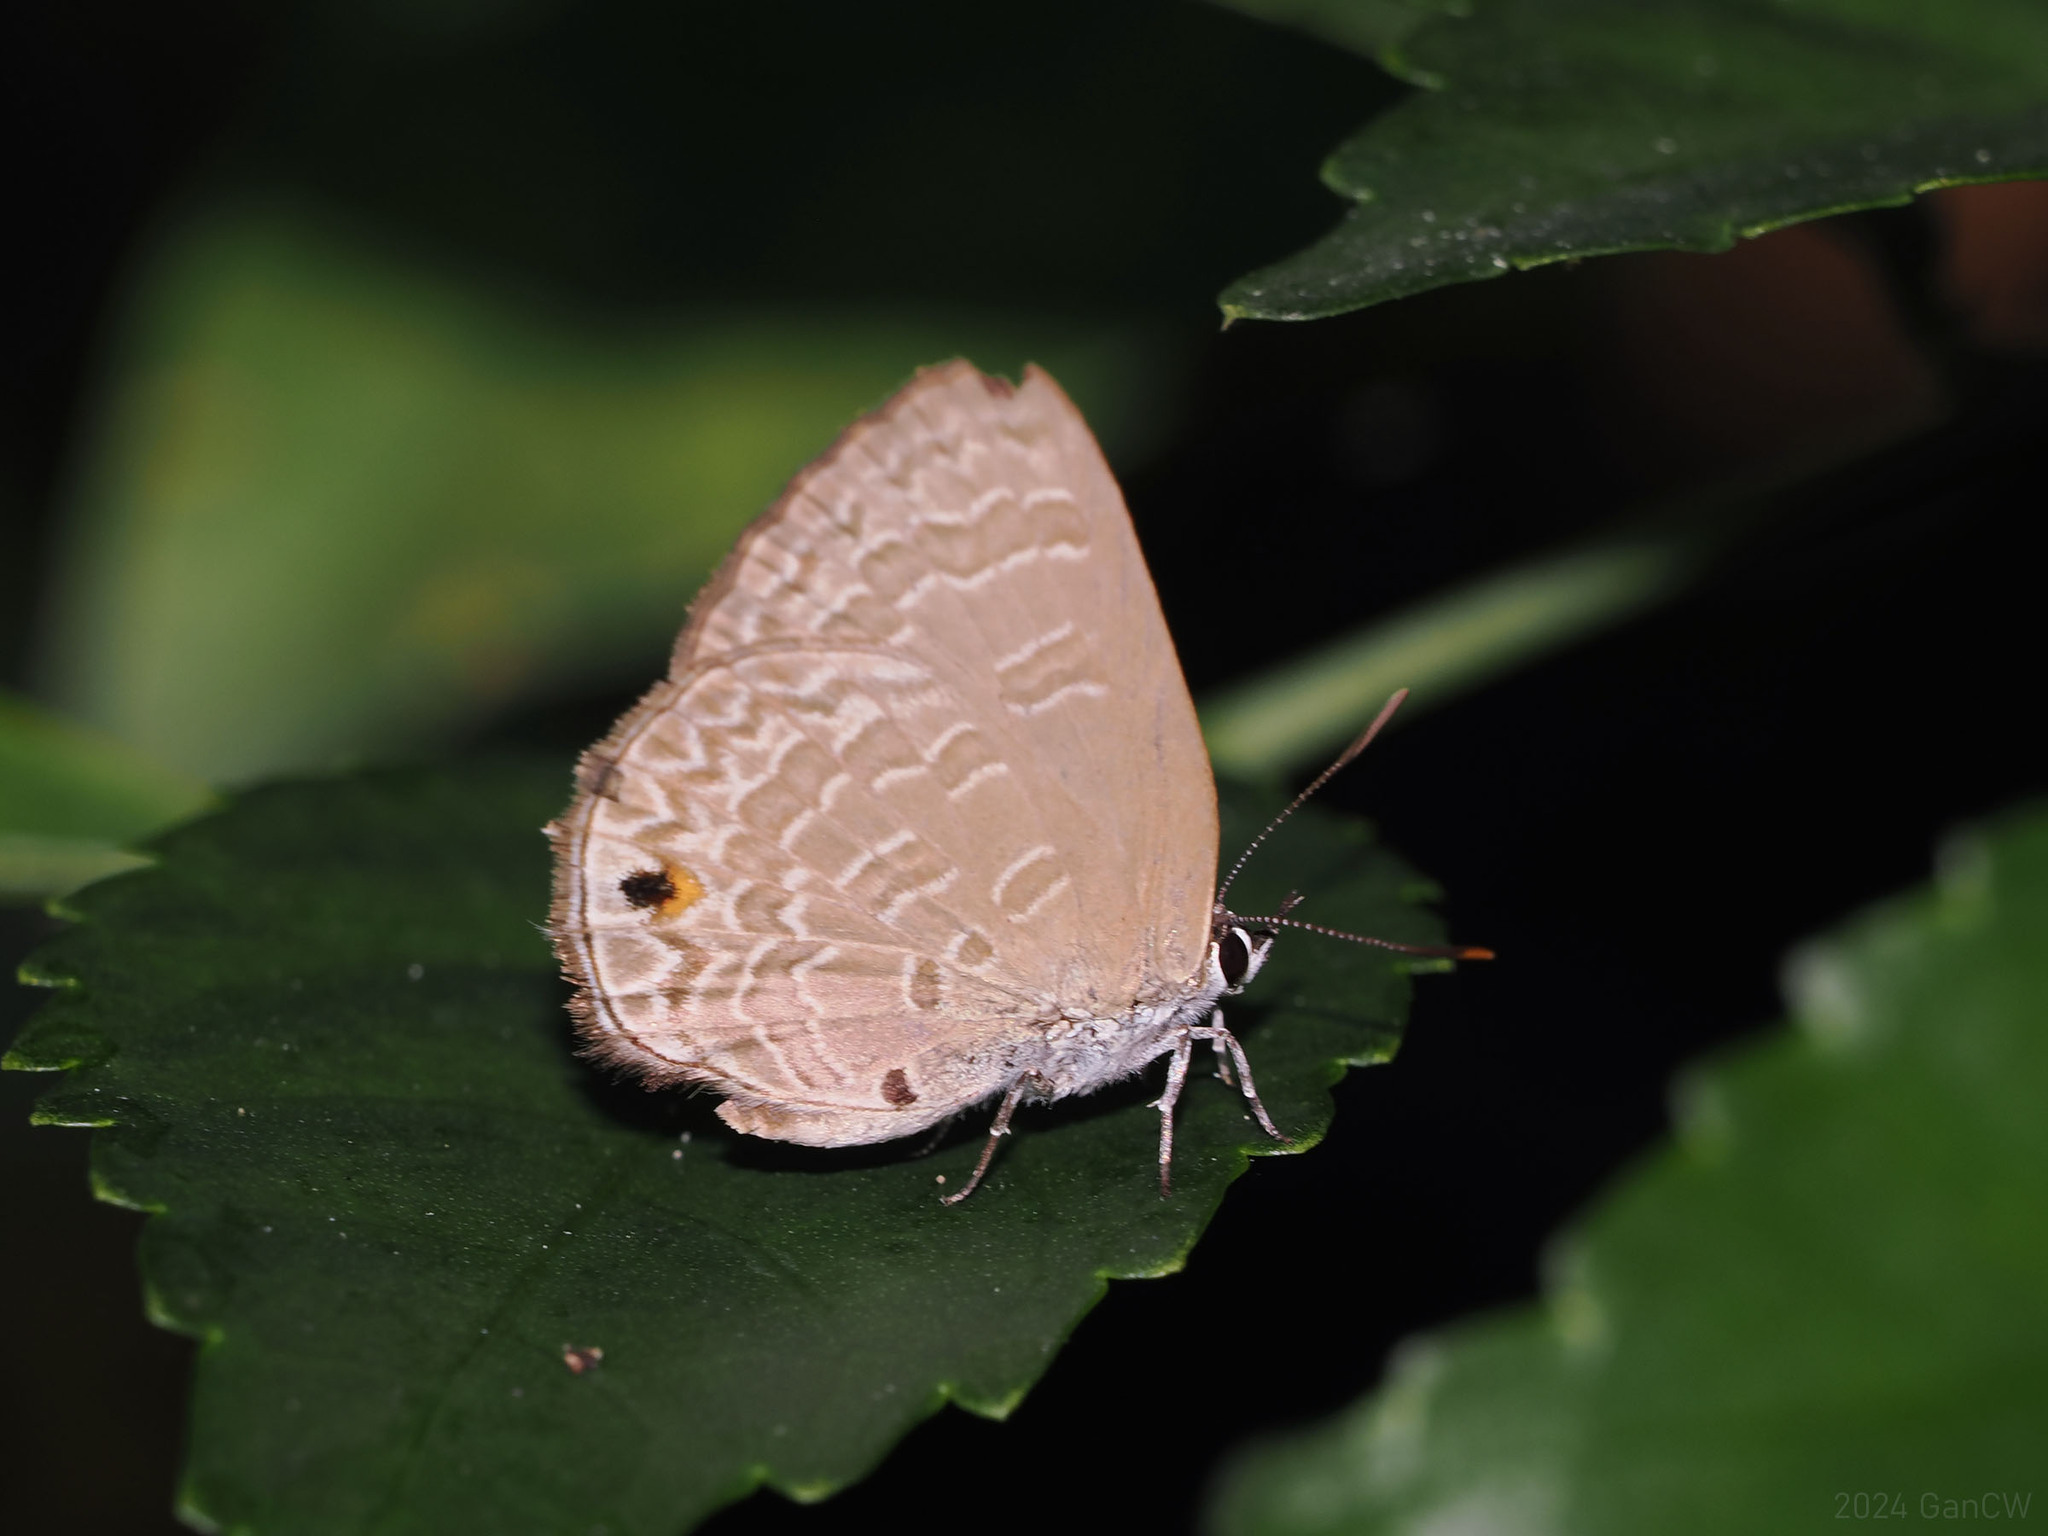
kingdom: Animalia
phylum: Arthropoda
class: Insecta
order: Lepidoptera
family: Lycaenidae
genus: Anthene
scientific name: Anthene emolus
